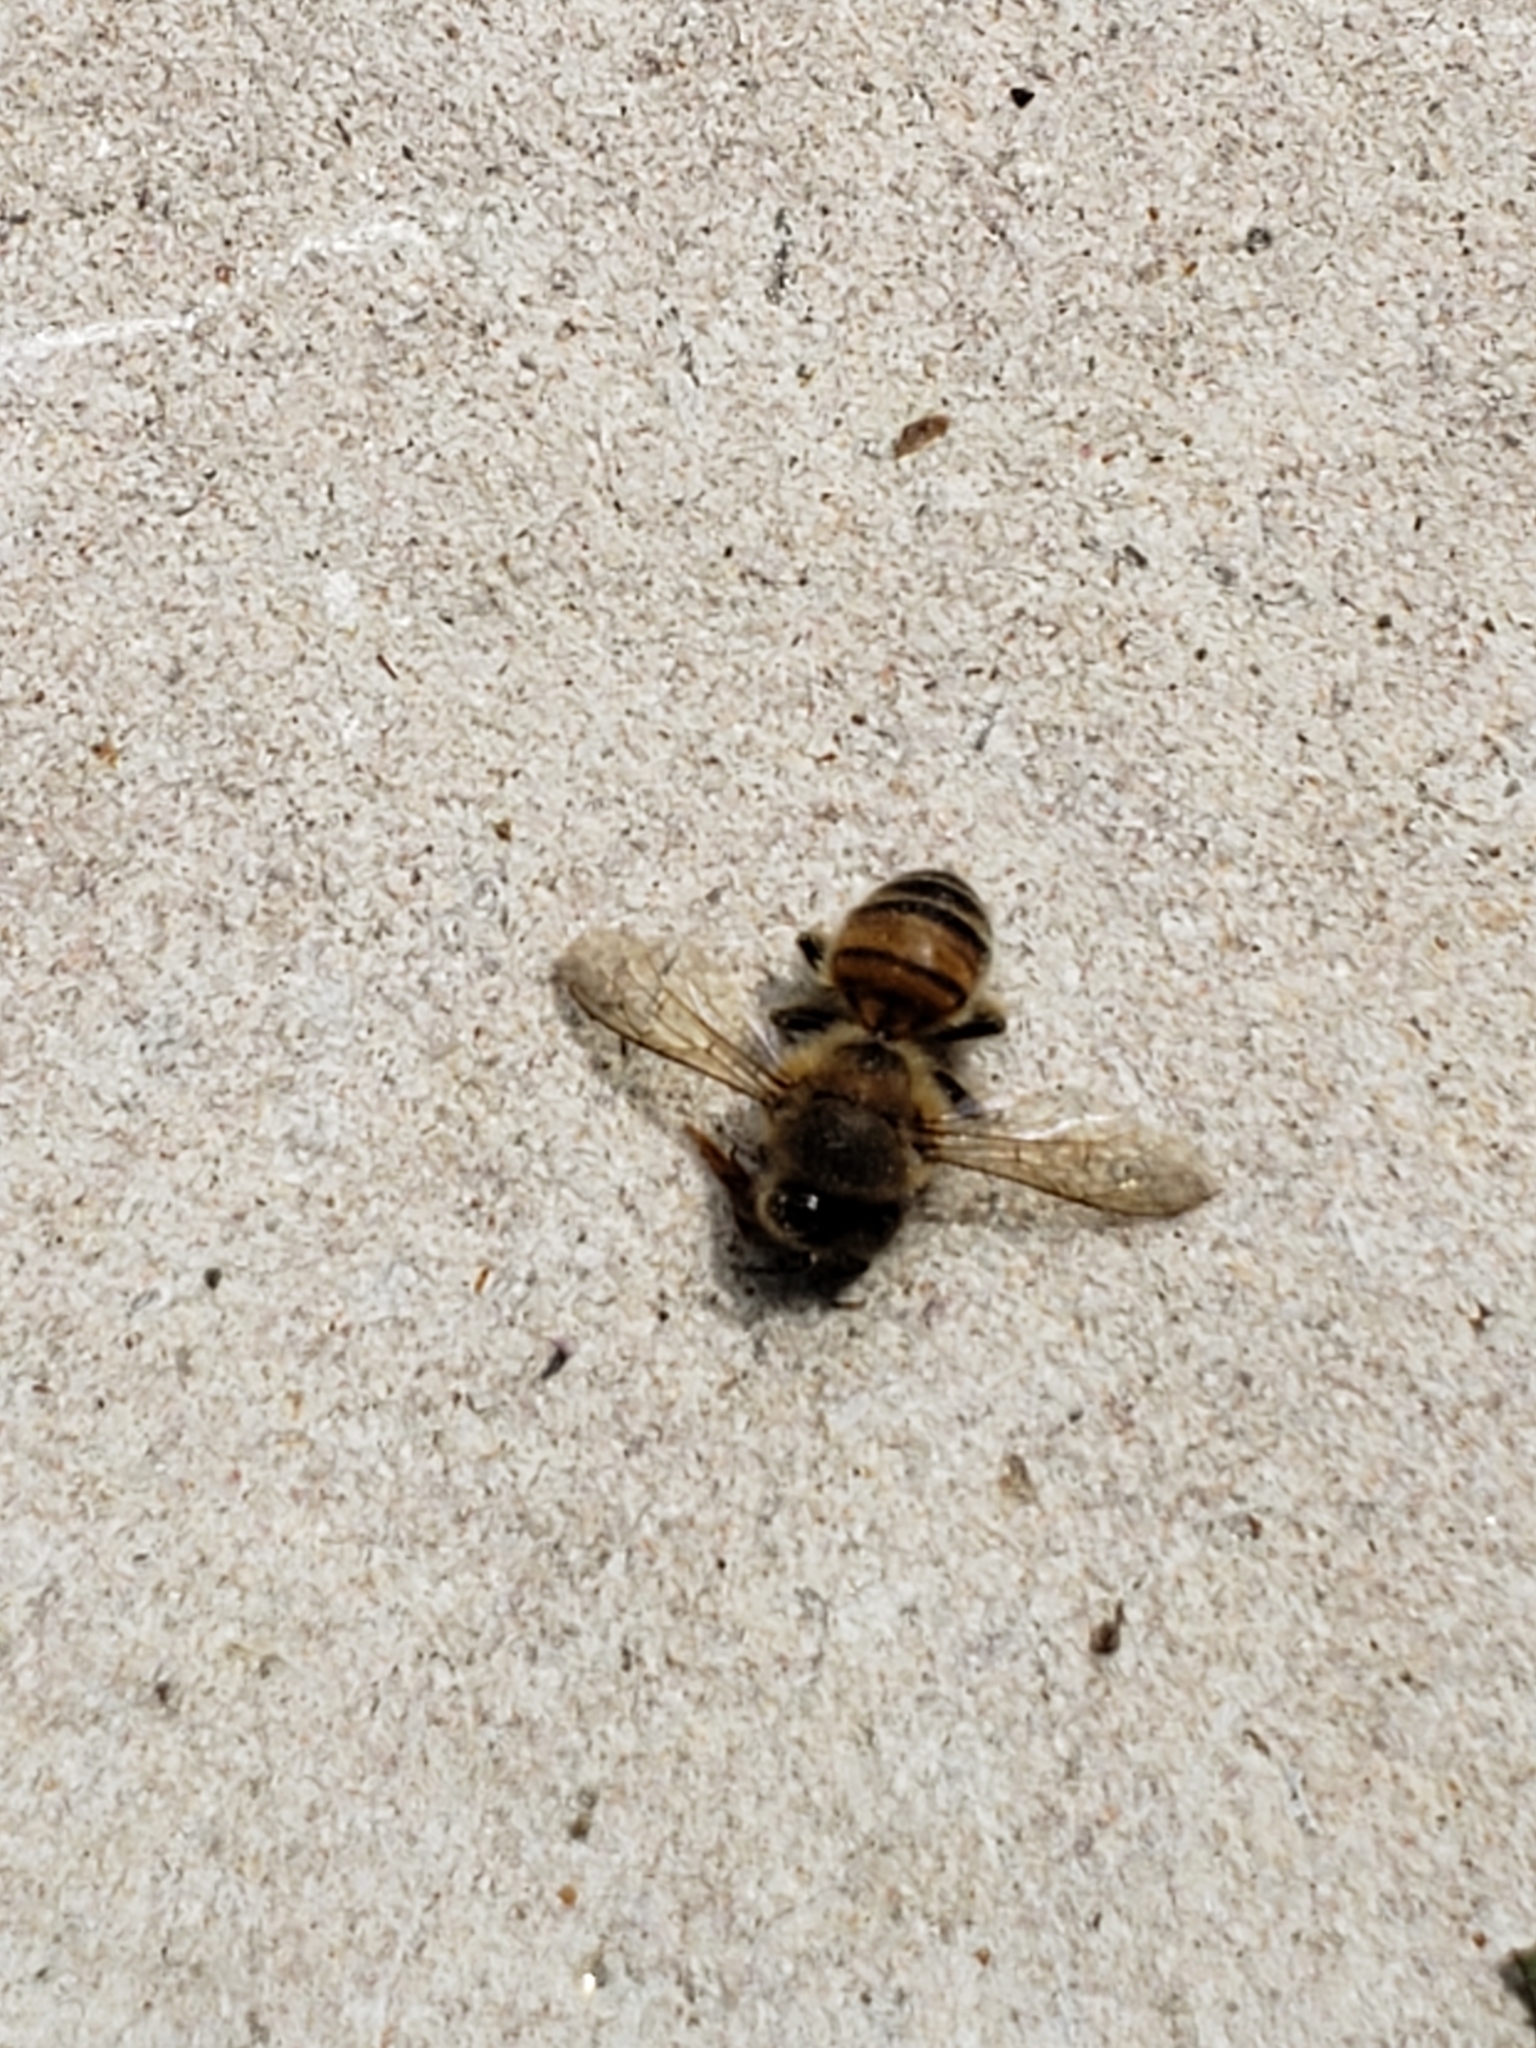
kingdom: Animalia
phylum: Arthropoda
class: Insecta
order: Hymenoptera
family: Apidae
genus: Apis
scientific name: Apis mellifera
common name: Honey bee
